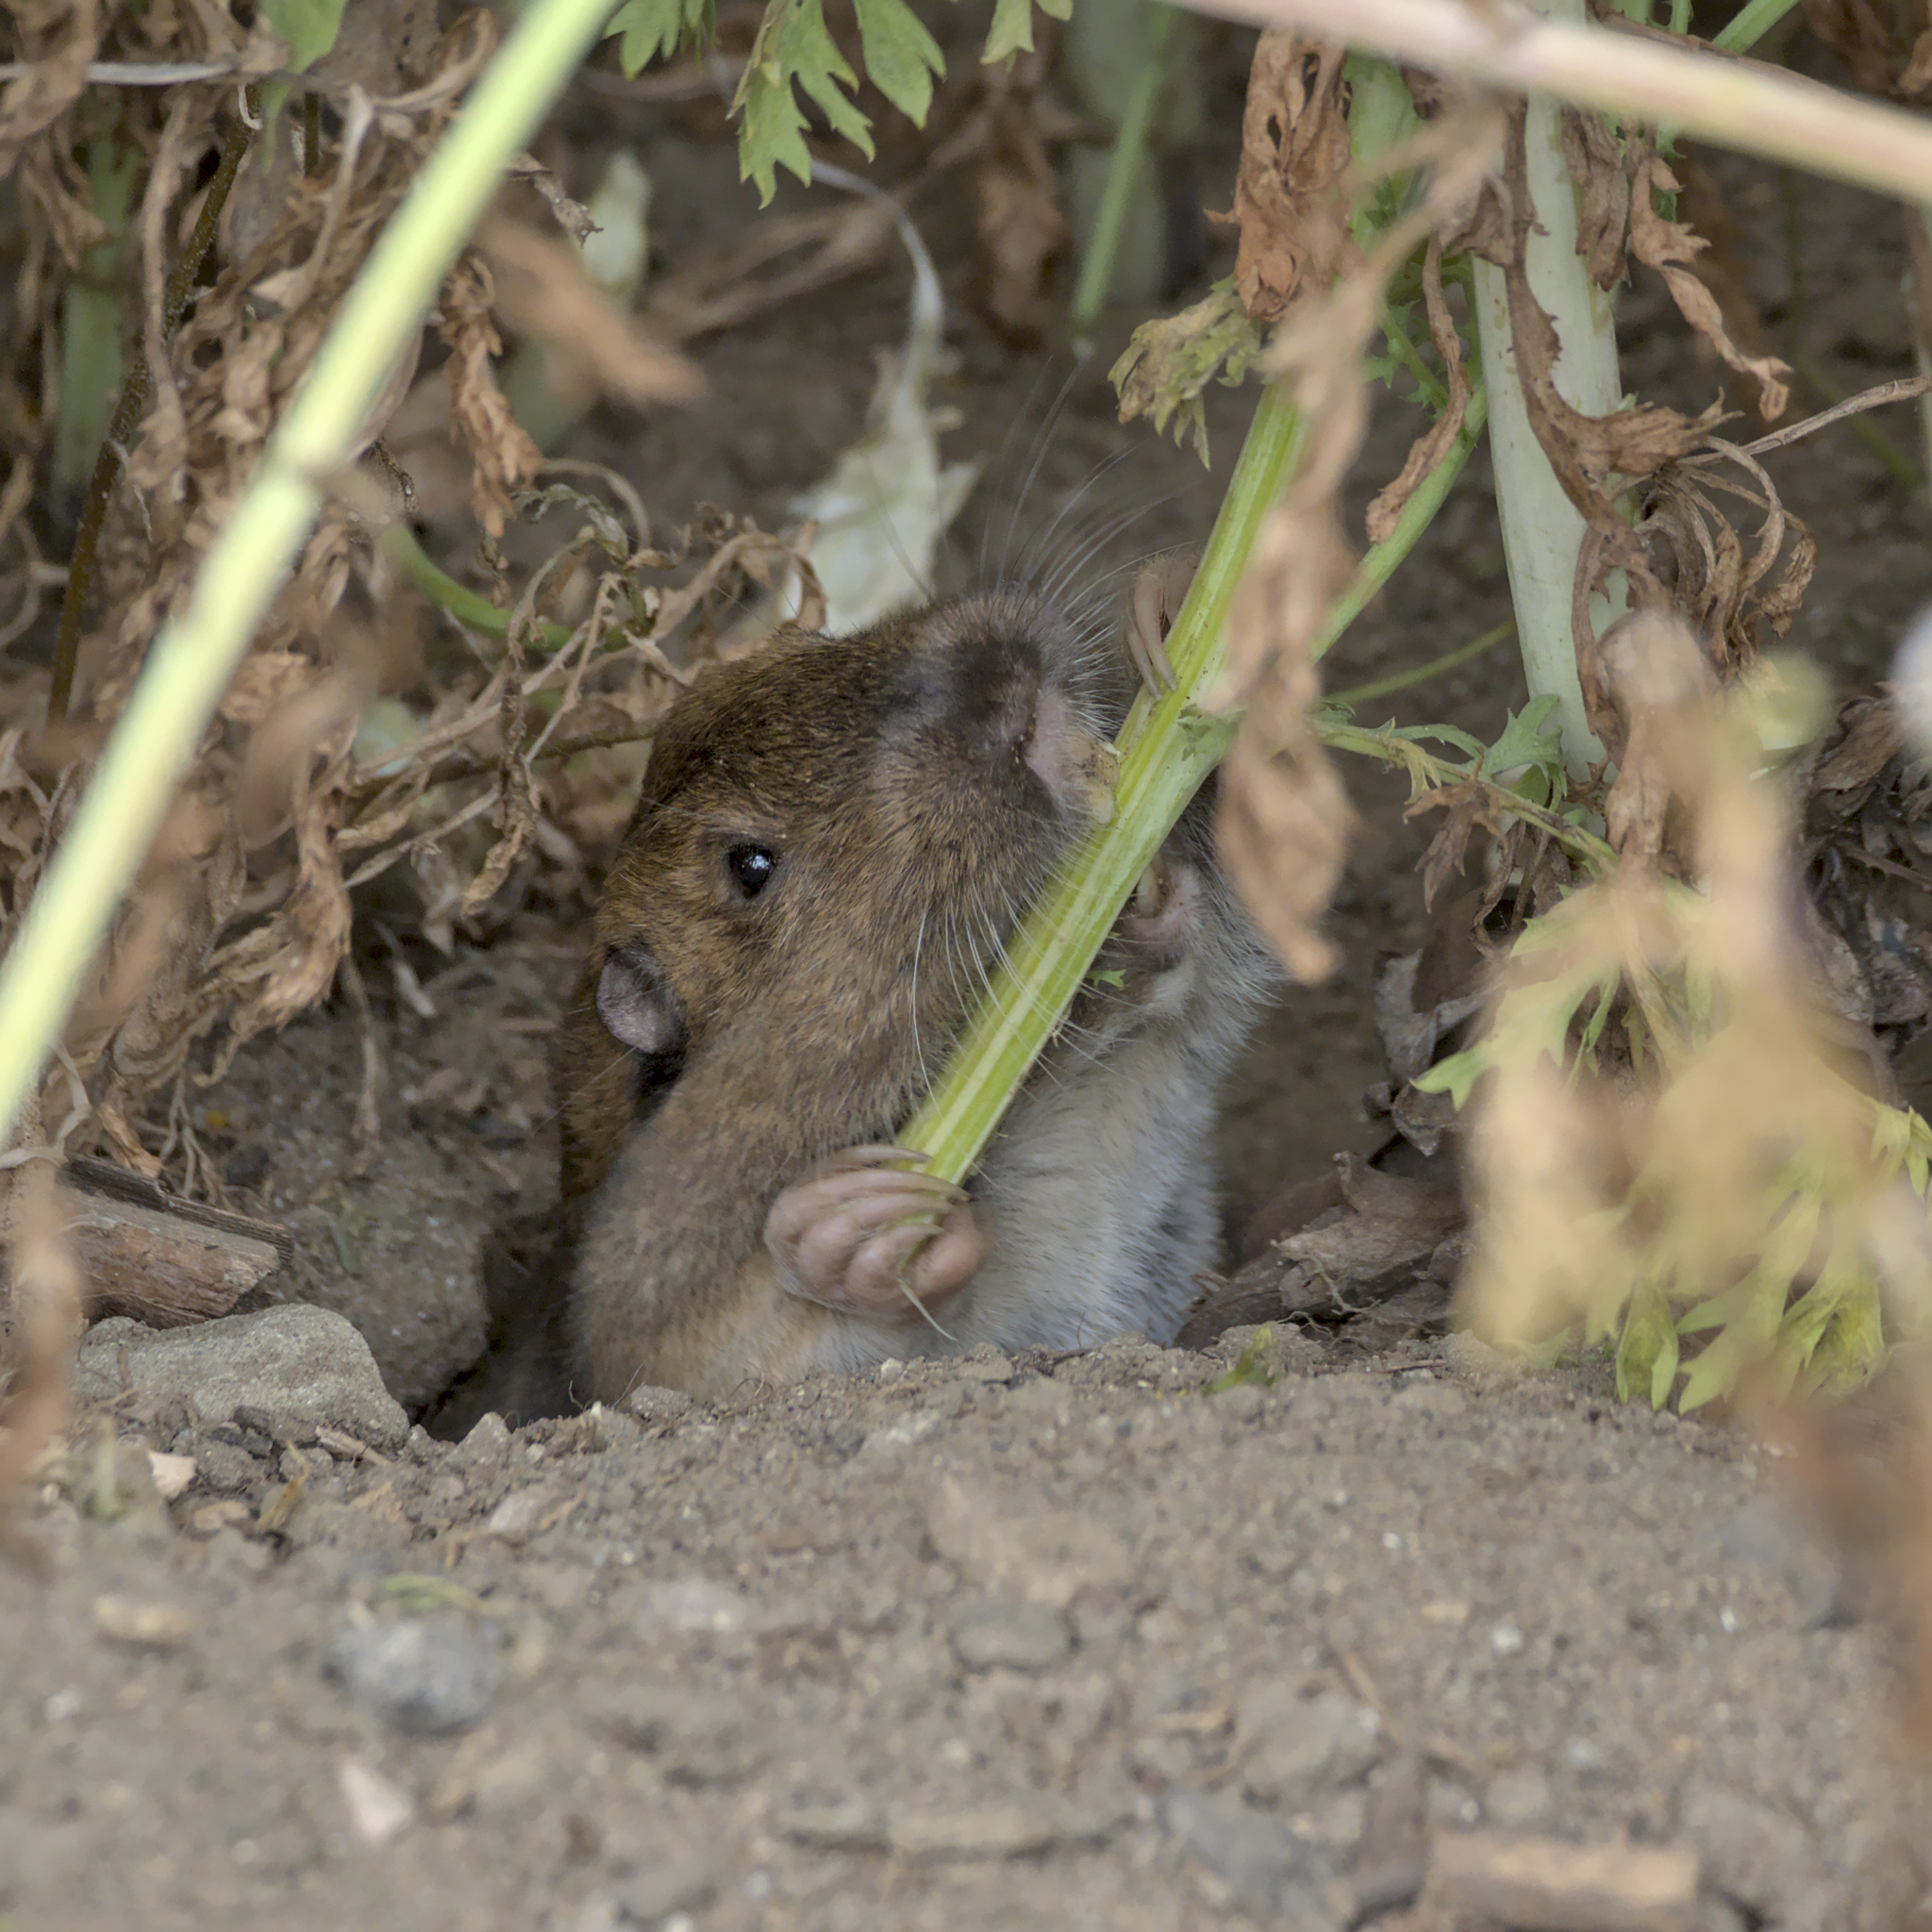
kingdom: Animalia
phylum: Chordata
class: Mammalia
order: Rodentia
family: Geomyidae
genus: Thomomys
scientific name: Thomomys bottae
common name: Botta's pocket gopher
